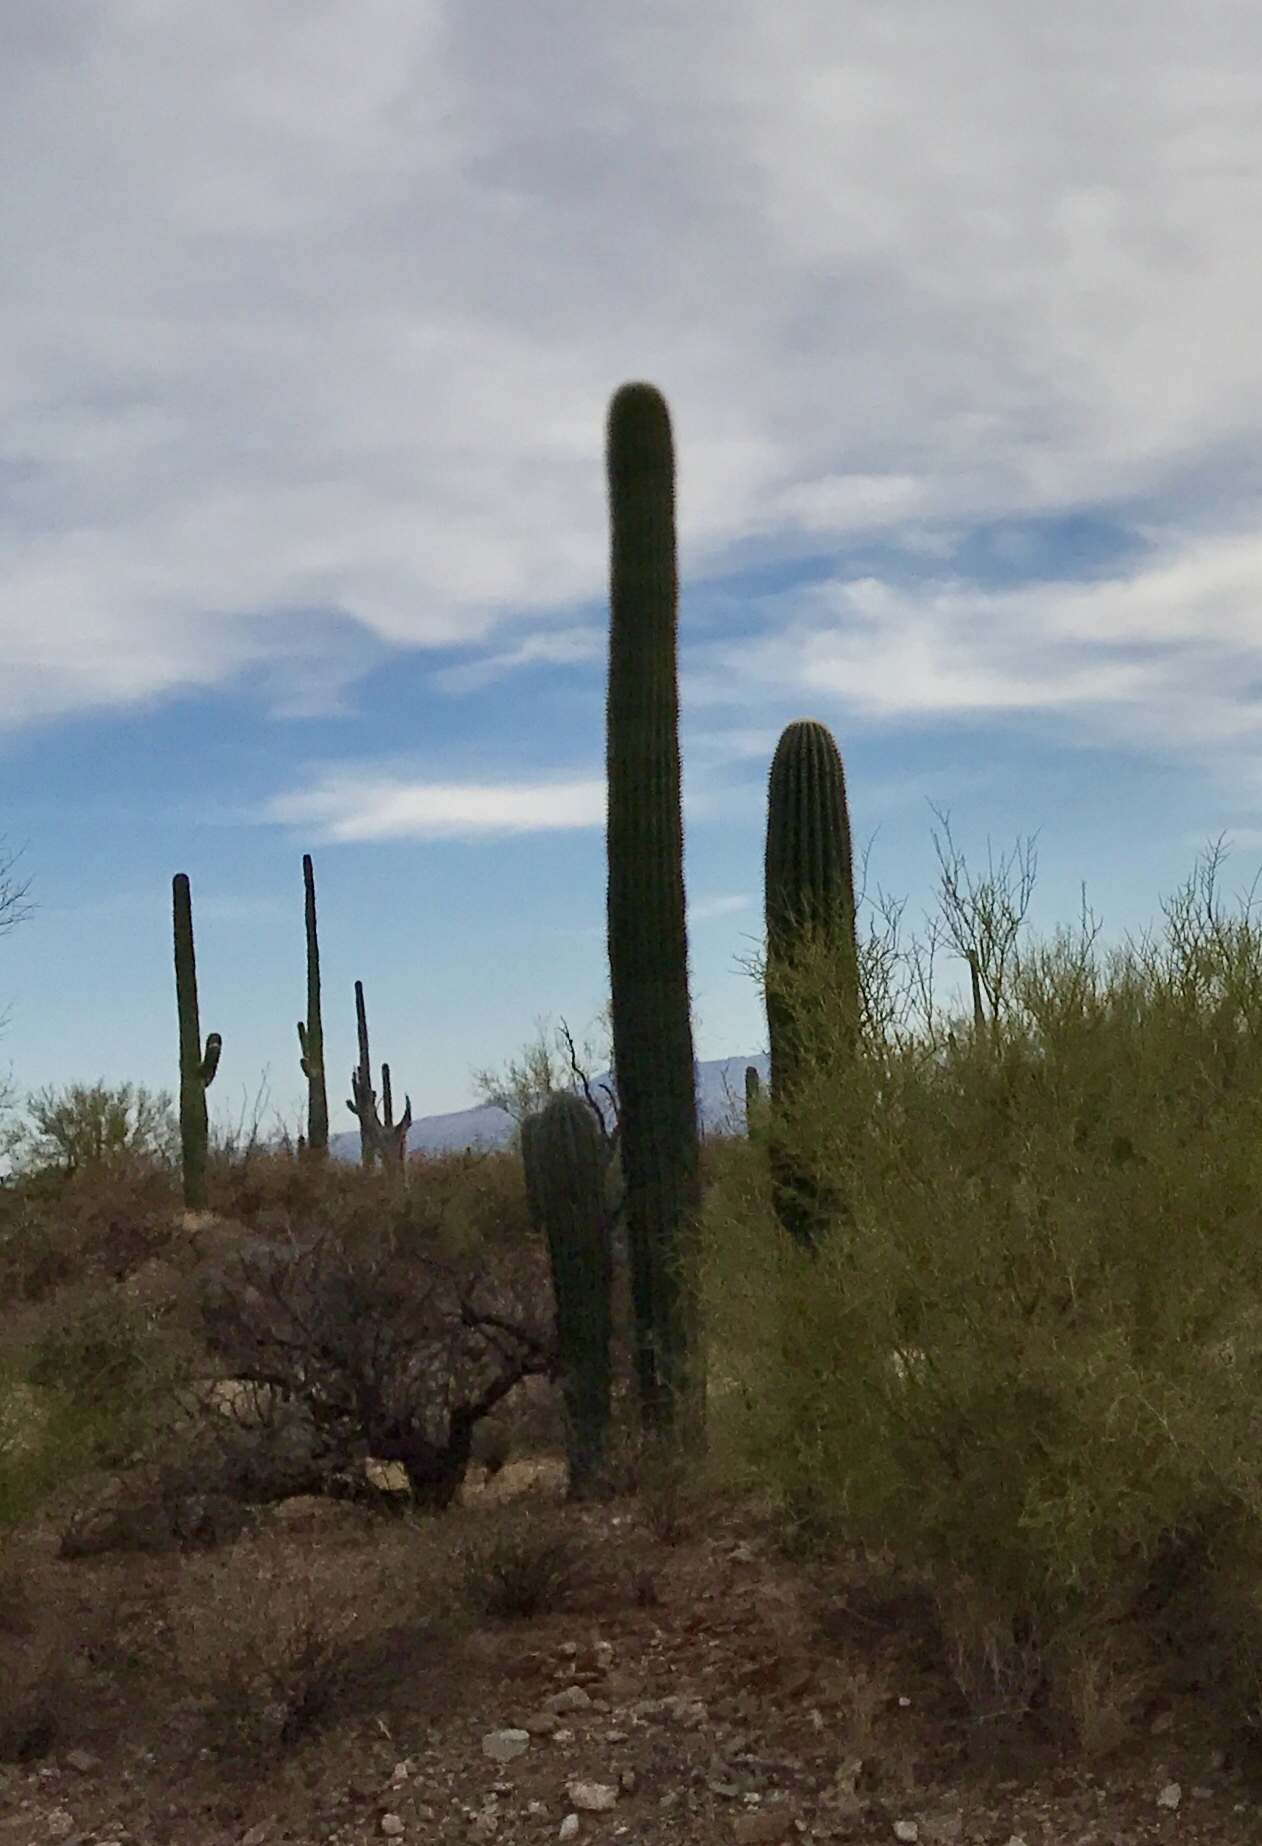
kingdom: Plantae
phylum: Tracheophyta
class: Magnoliopsida
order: Caryophyllales
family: Cactaceae
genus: Carnegiea
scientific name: Carnegiea gigantea
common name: Saguaro
